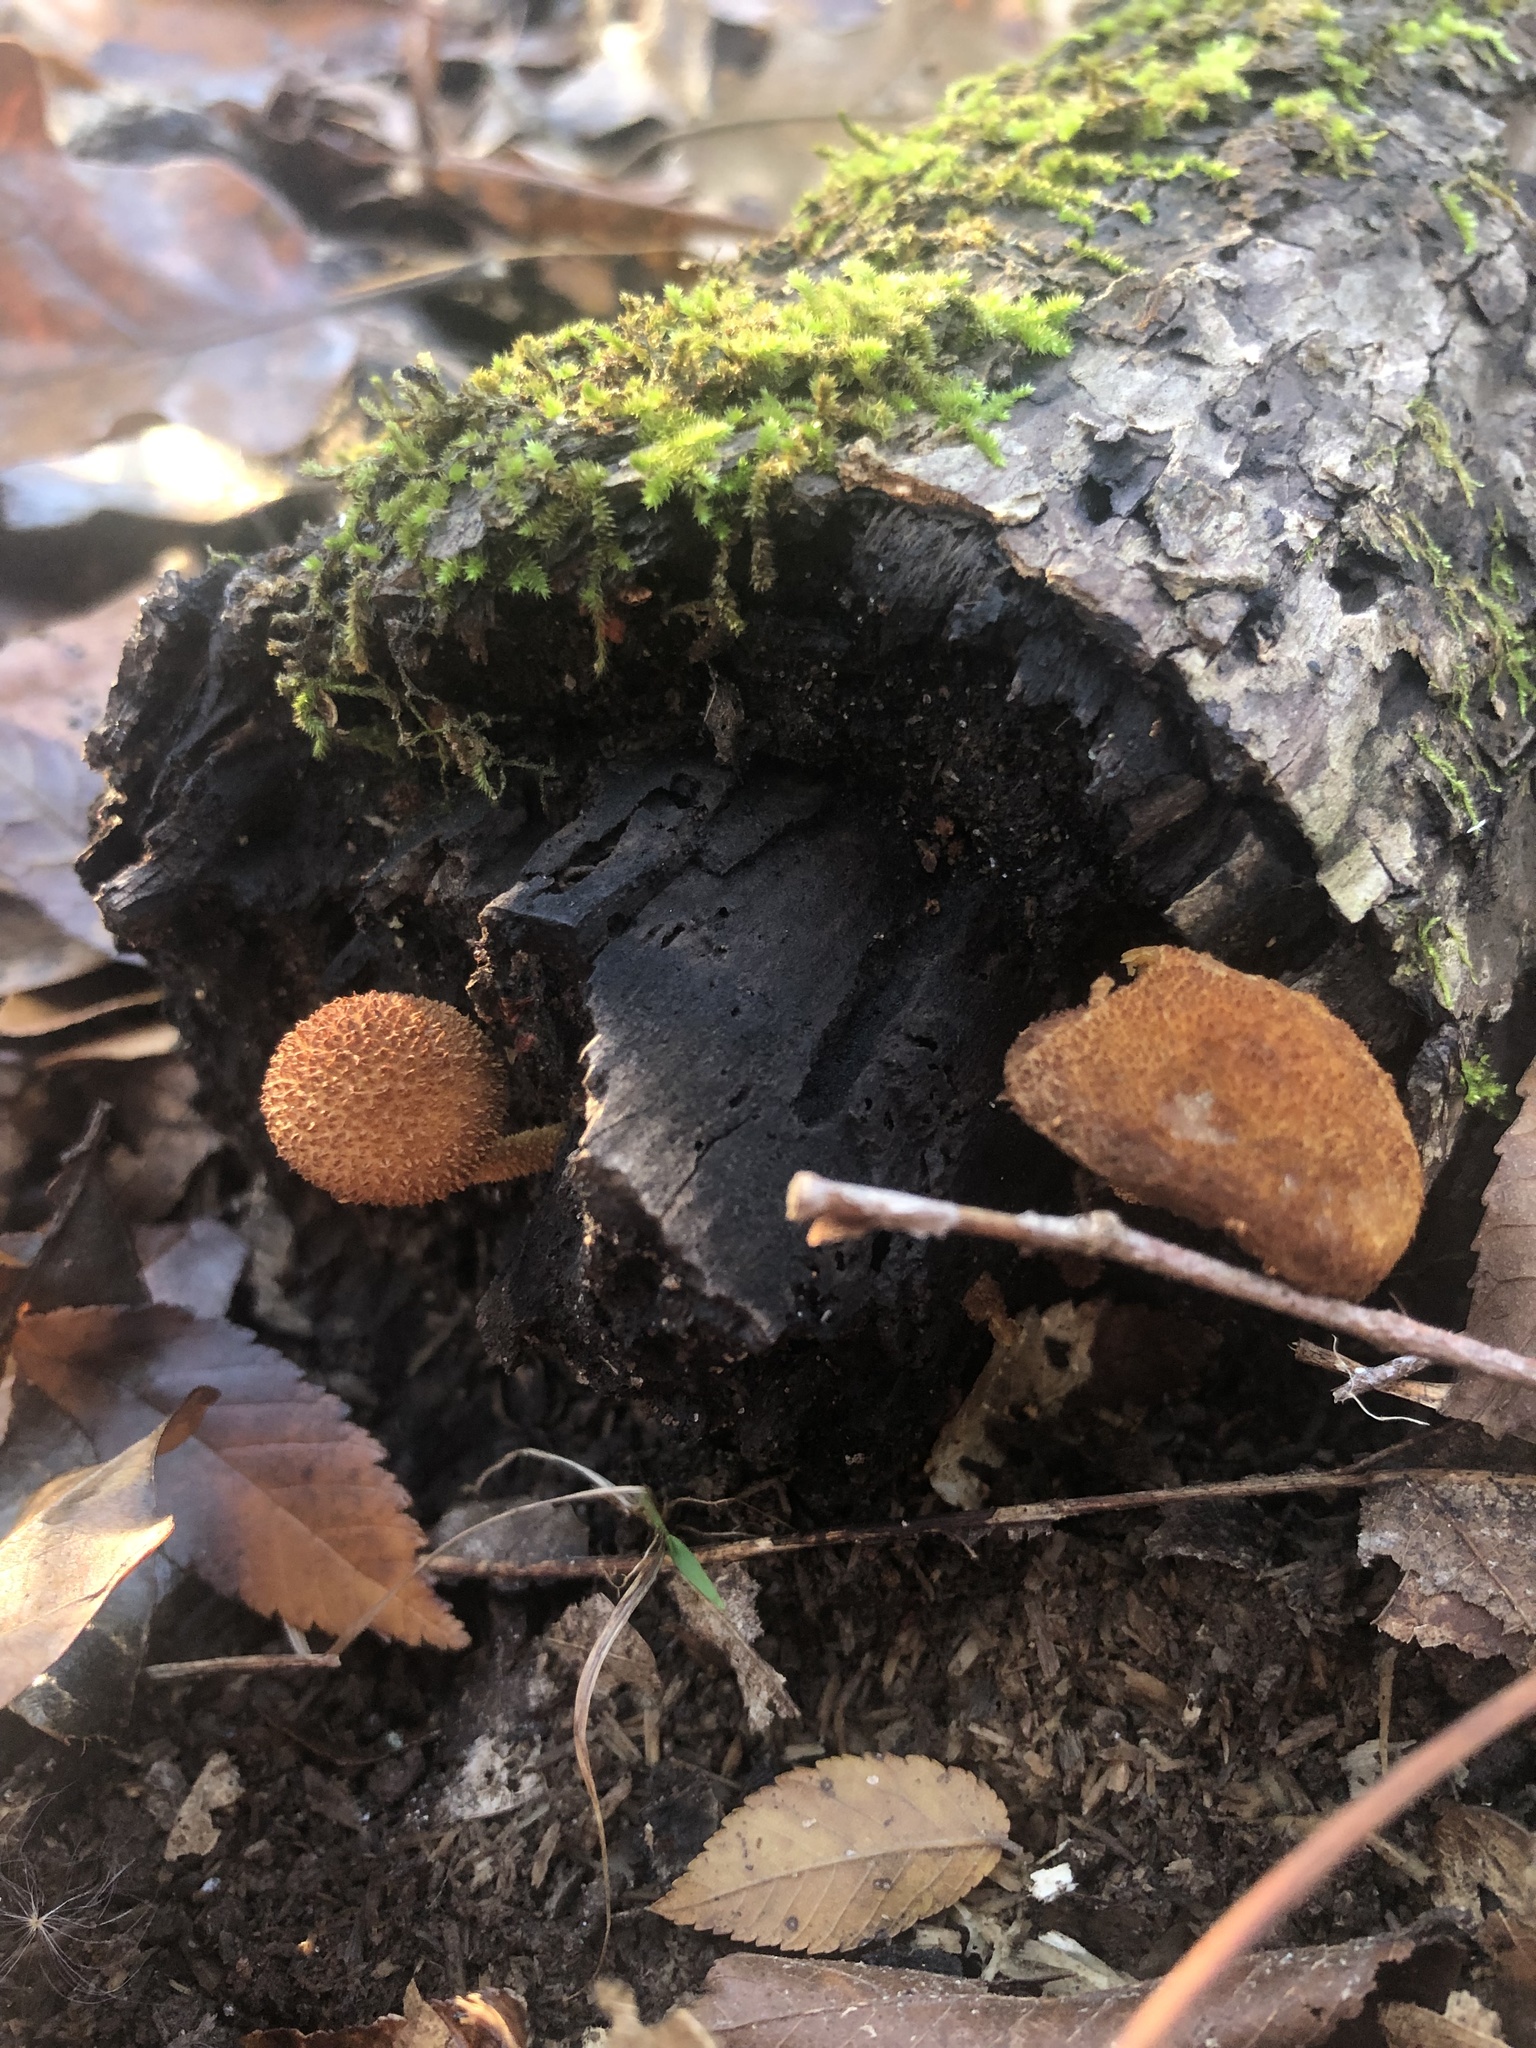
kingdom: Fungi
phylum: Basidiomycota
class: Agaricomycetes
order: Agaricales
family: Tubariaceae
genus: Flammulaster
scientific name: Flammulaster erinaceellus
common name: Powder-scale pholiota
